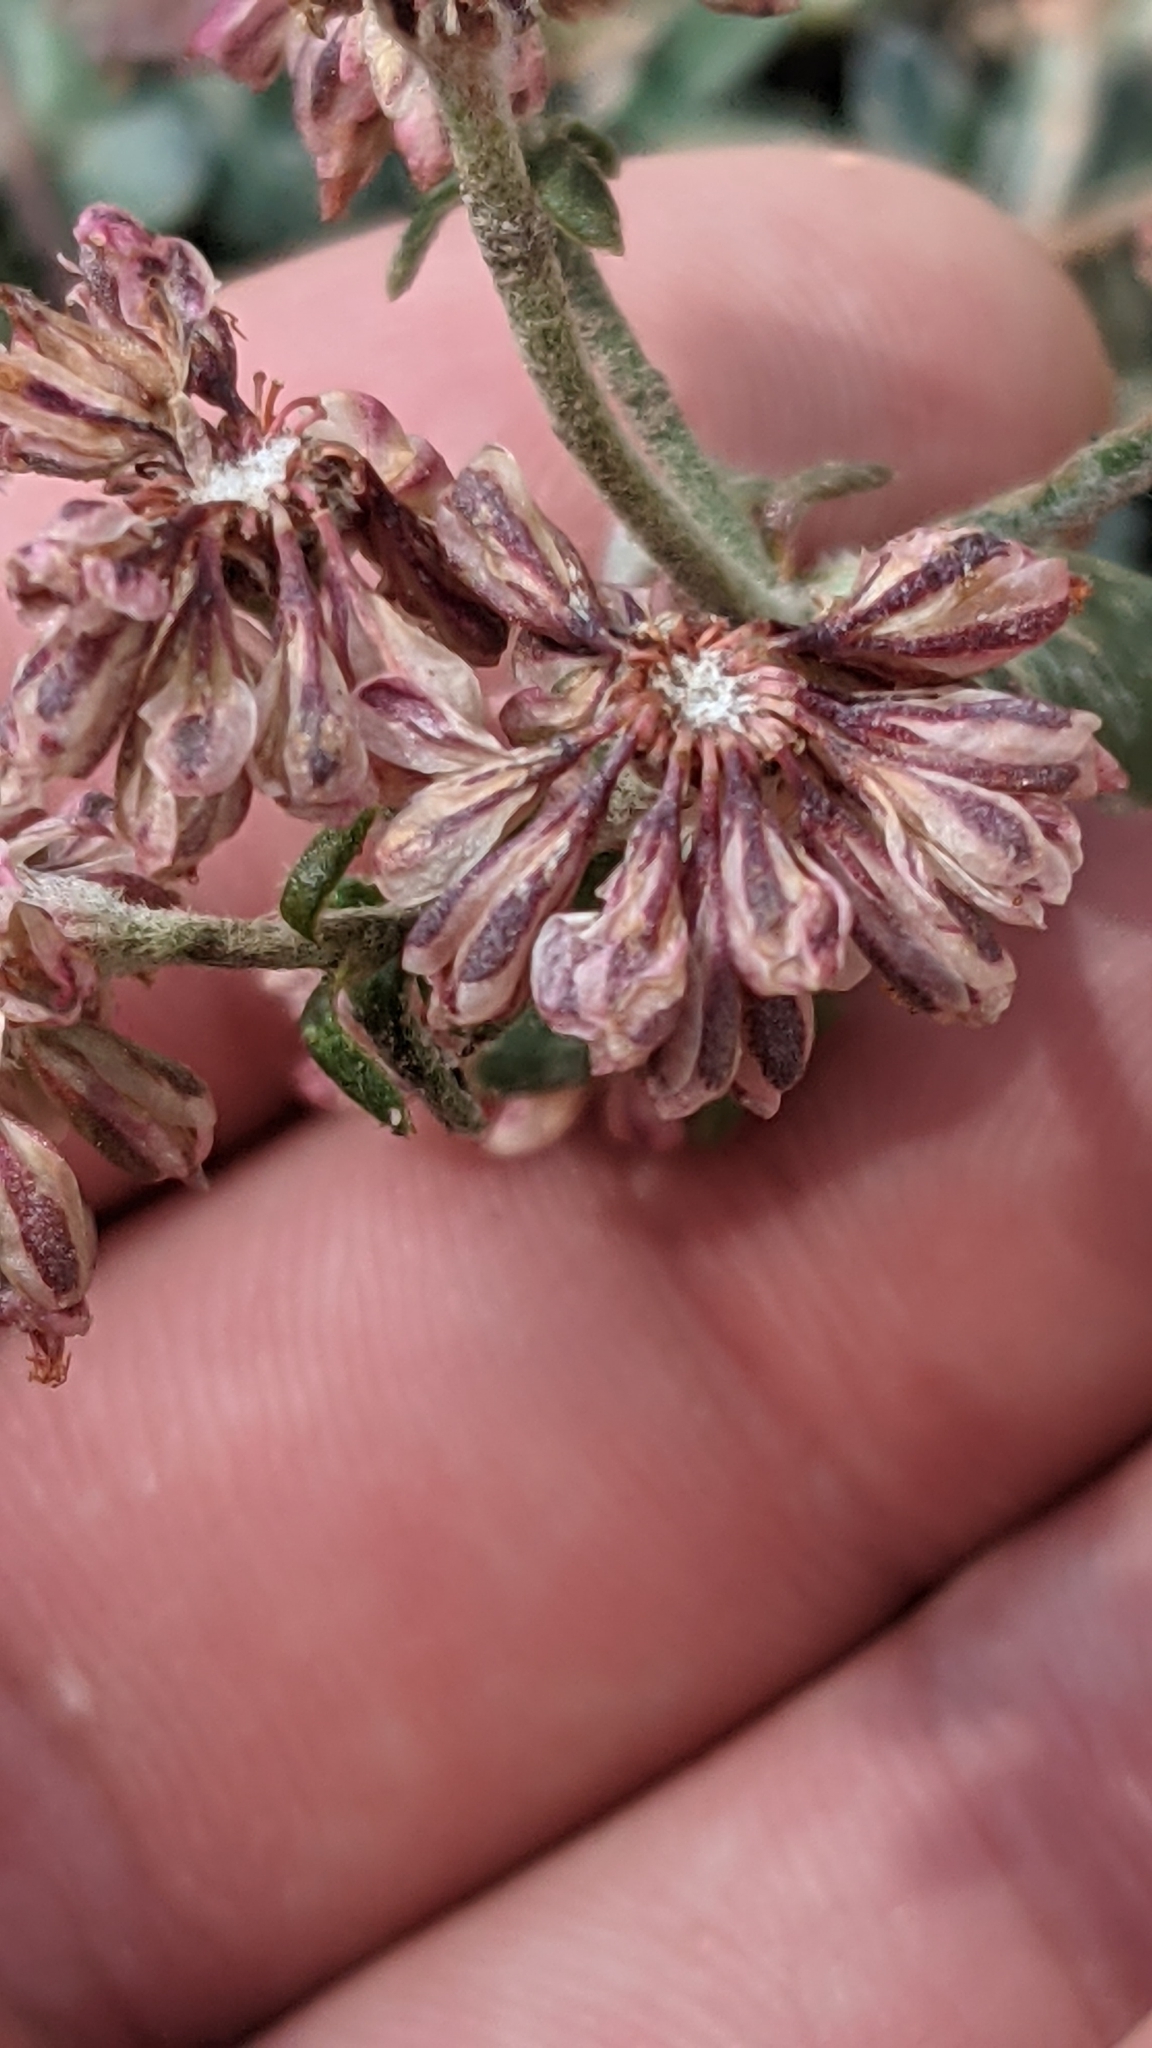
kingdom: Plantae
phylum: Tracheophyta
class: Magnoliopsida
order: Caryophyllales
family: Polygonaceae
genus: Eriogonum
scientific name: Eriogonum umbellatum
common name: Sulfur-buckwheat
